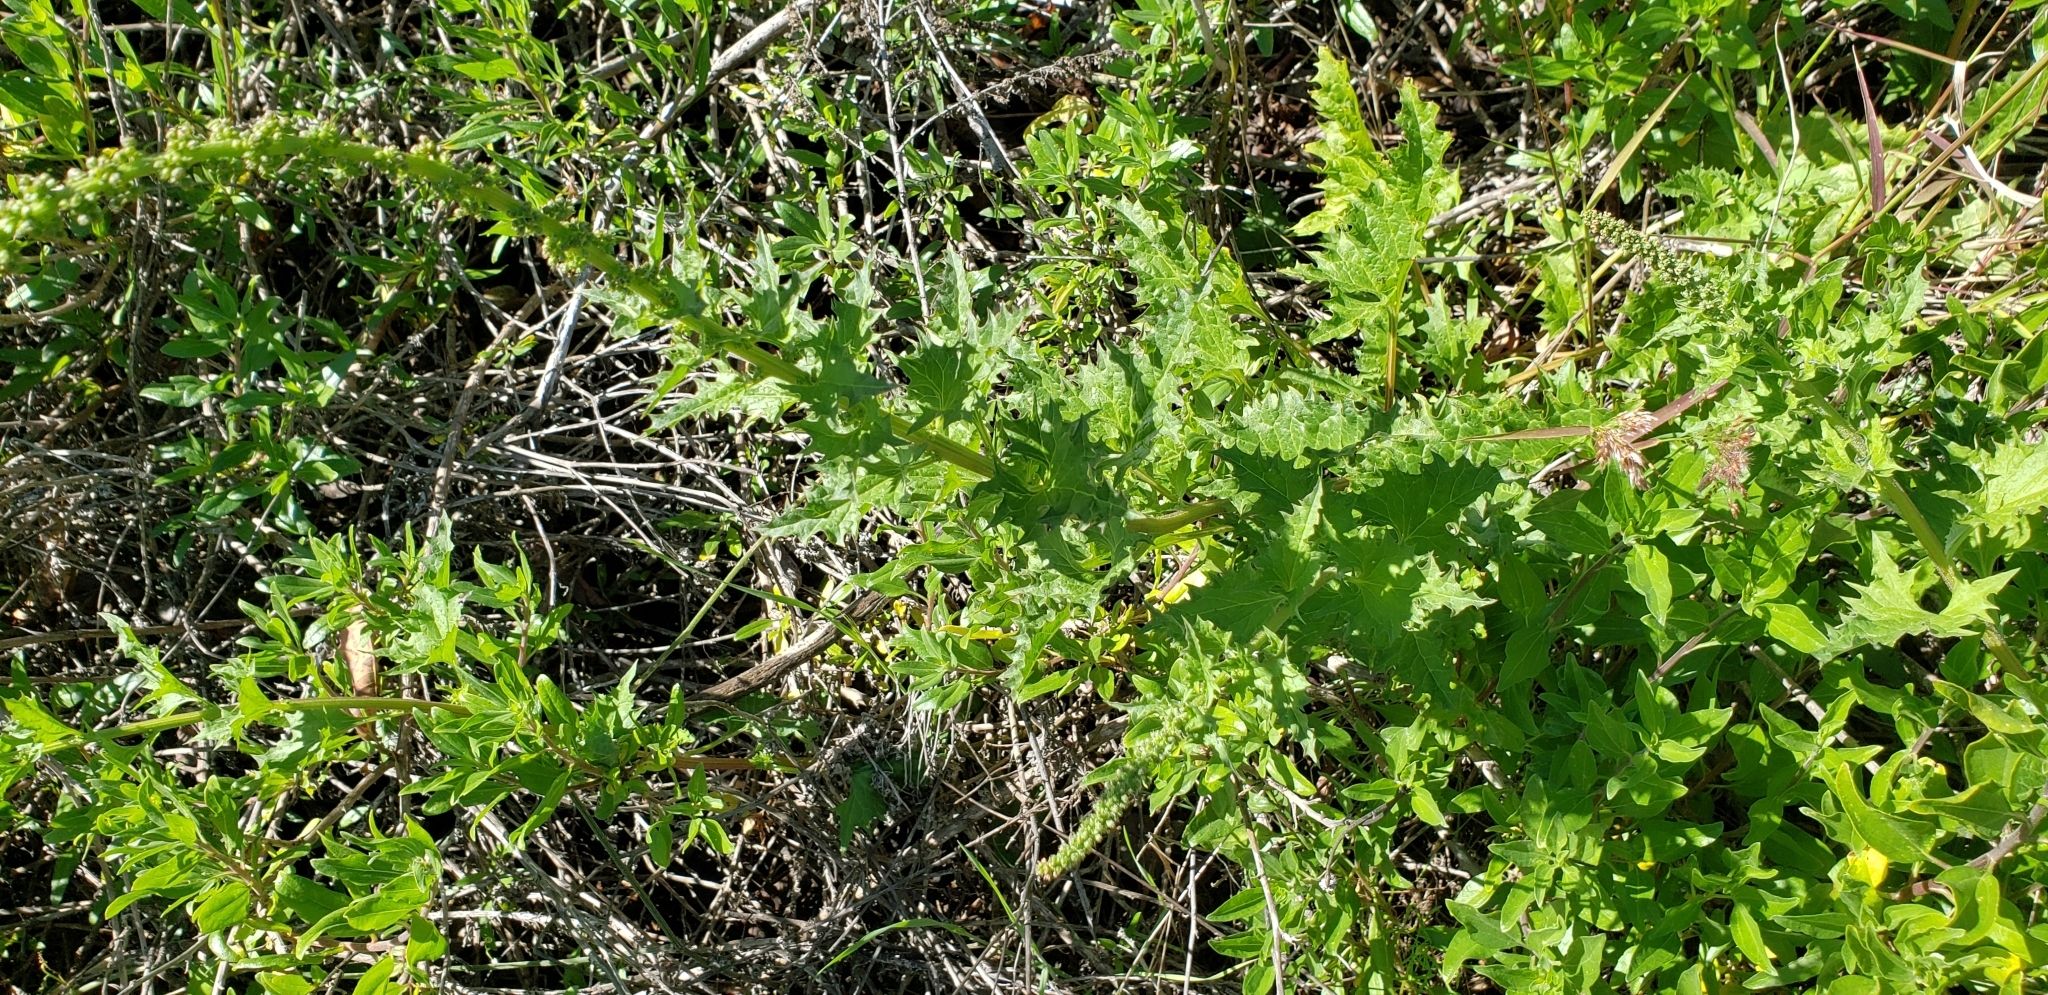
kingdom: Plantae
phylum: Tracheophyta
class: Magnoliopsida
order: Caryophyllales
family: Amaranthaceae
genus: Blitum
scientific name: Blitum californicum
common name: California goosefoot
